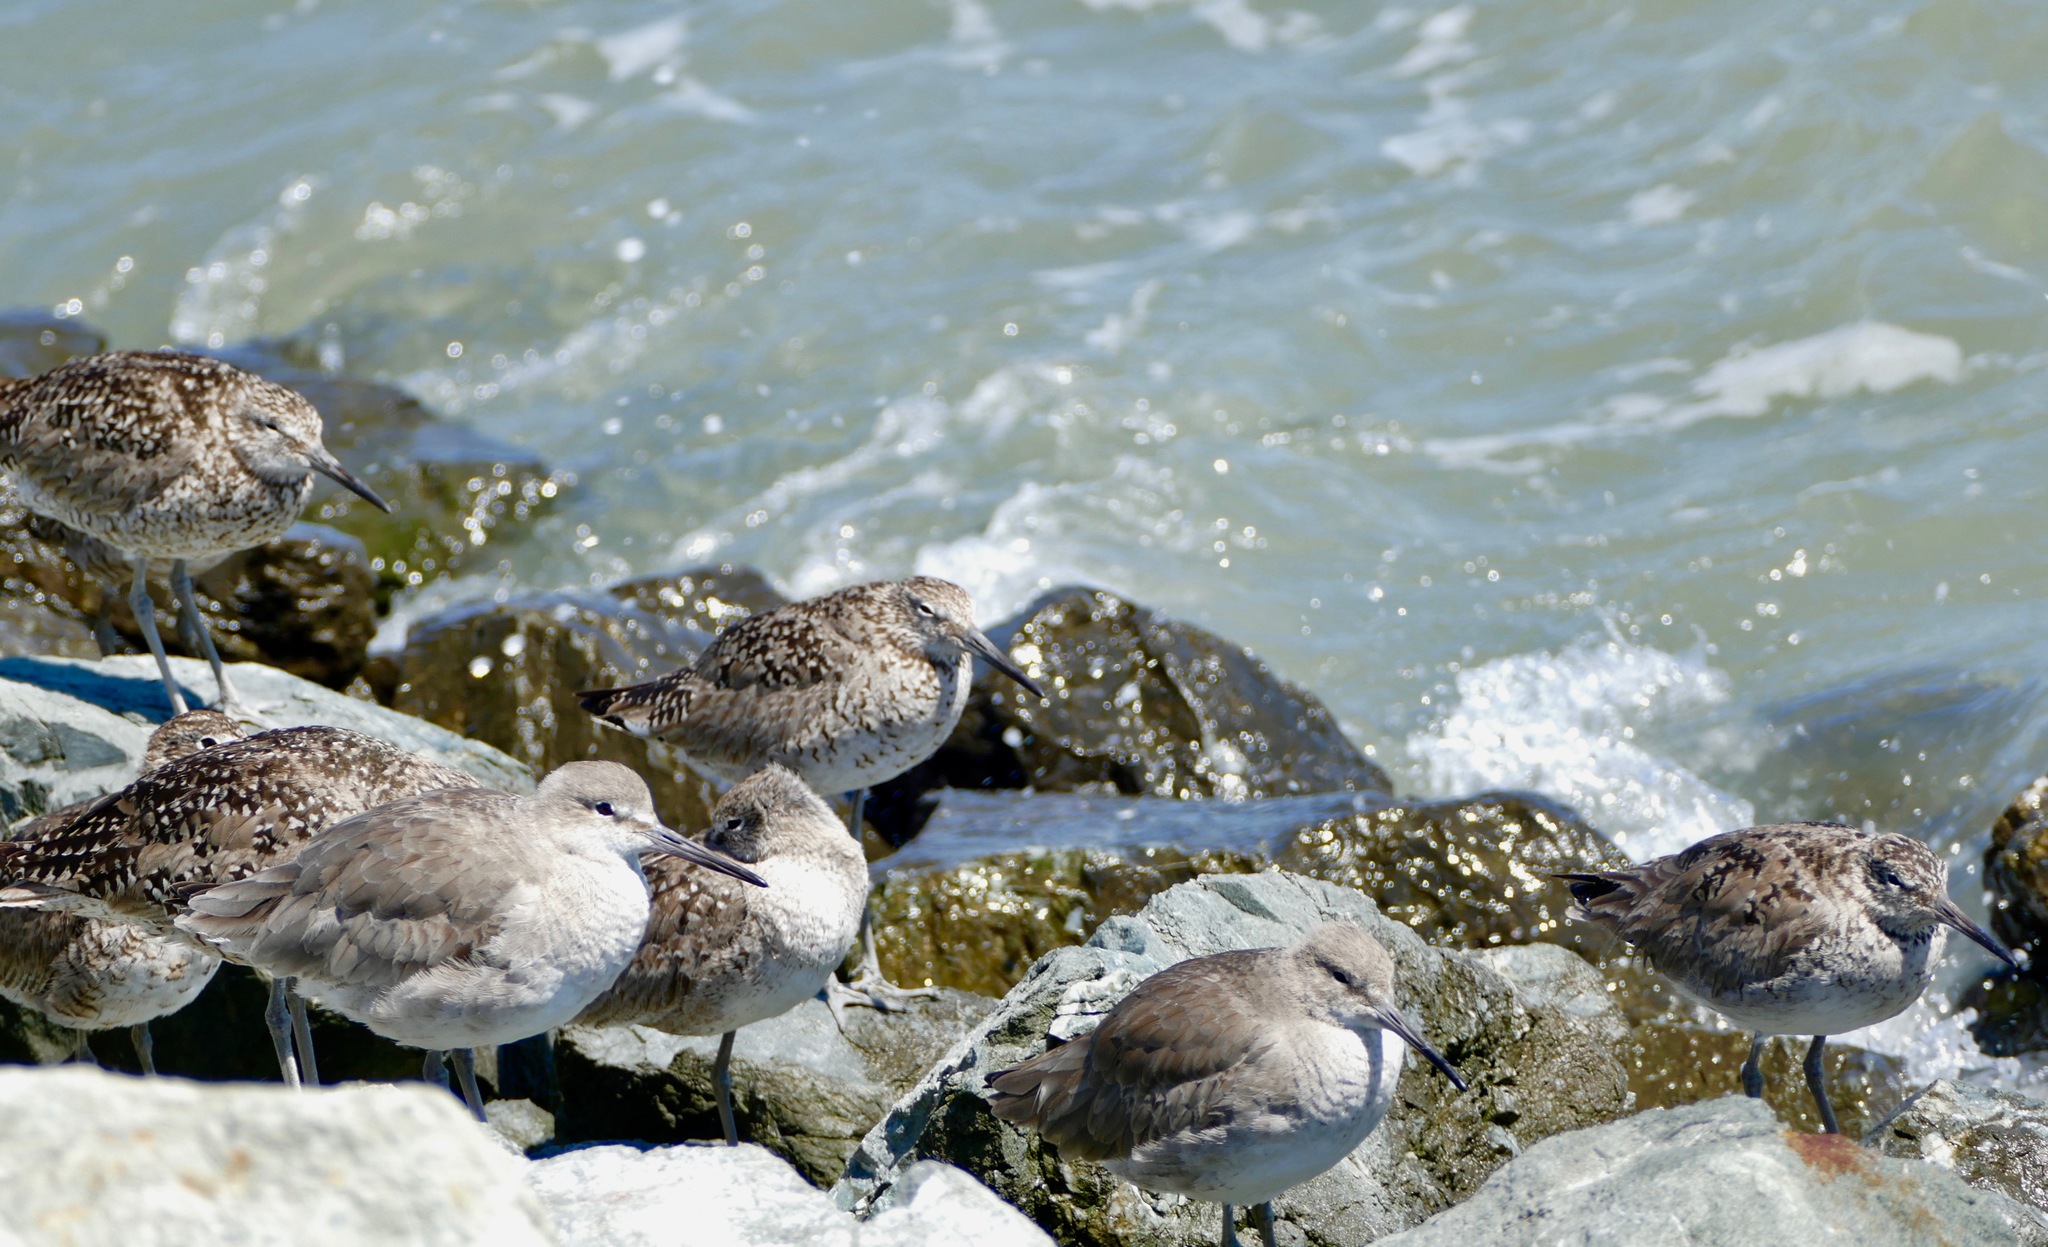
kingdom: Animalia
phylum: Chordata
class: Aves
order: Charadriiformes
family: Scolopacidae
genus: Tringa
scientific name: Tringa semipalmata
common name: Willet
